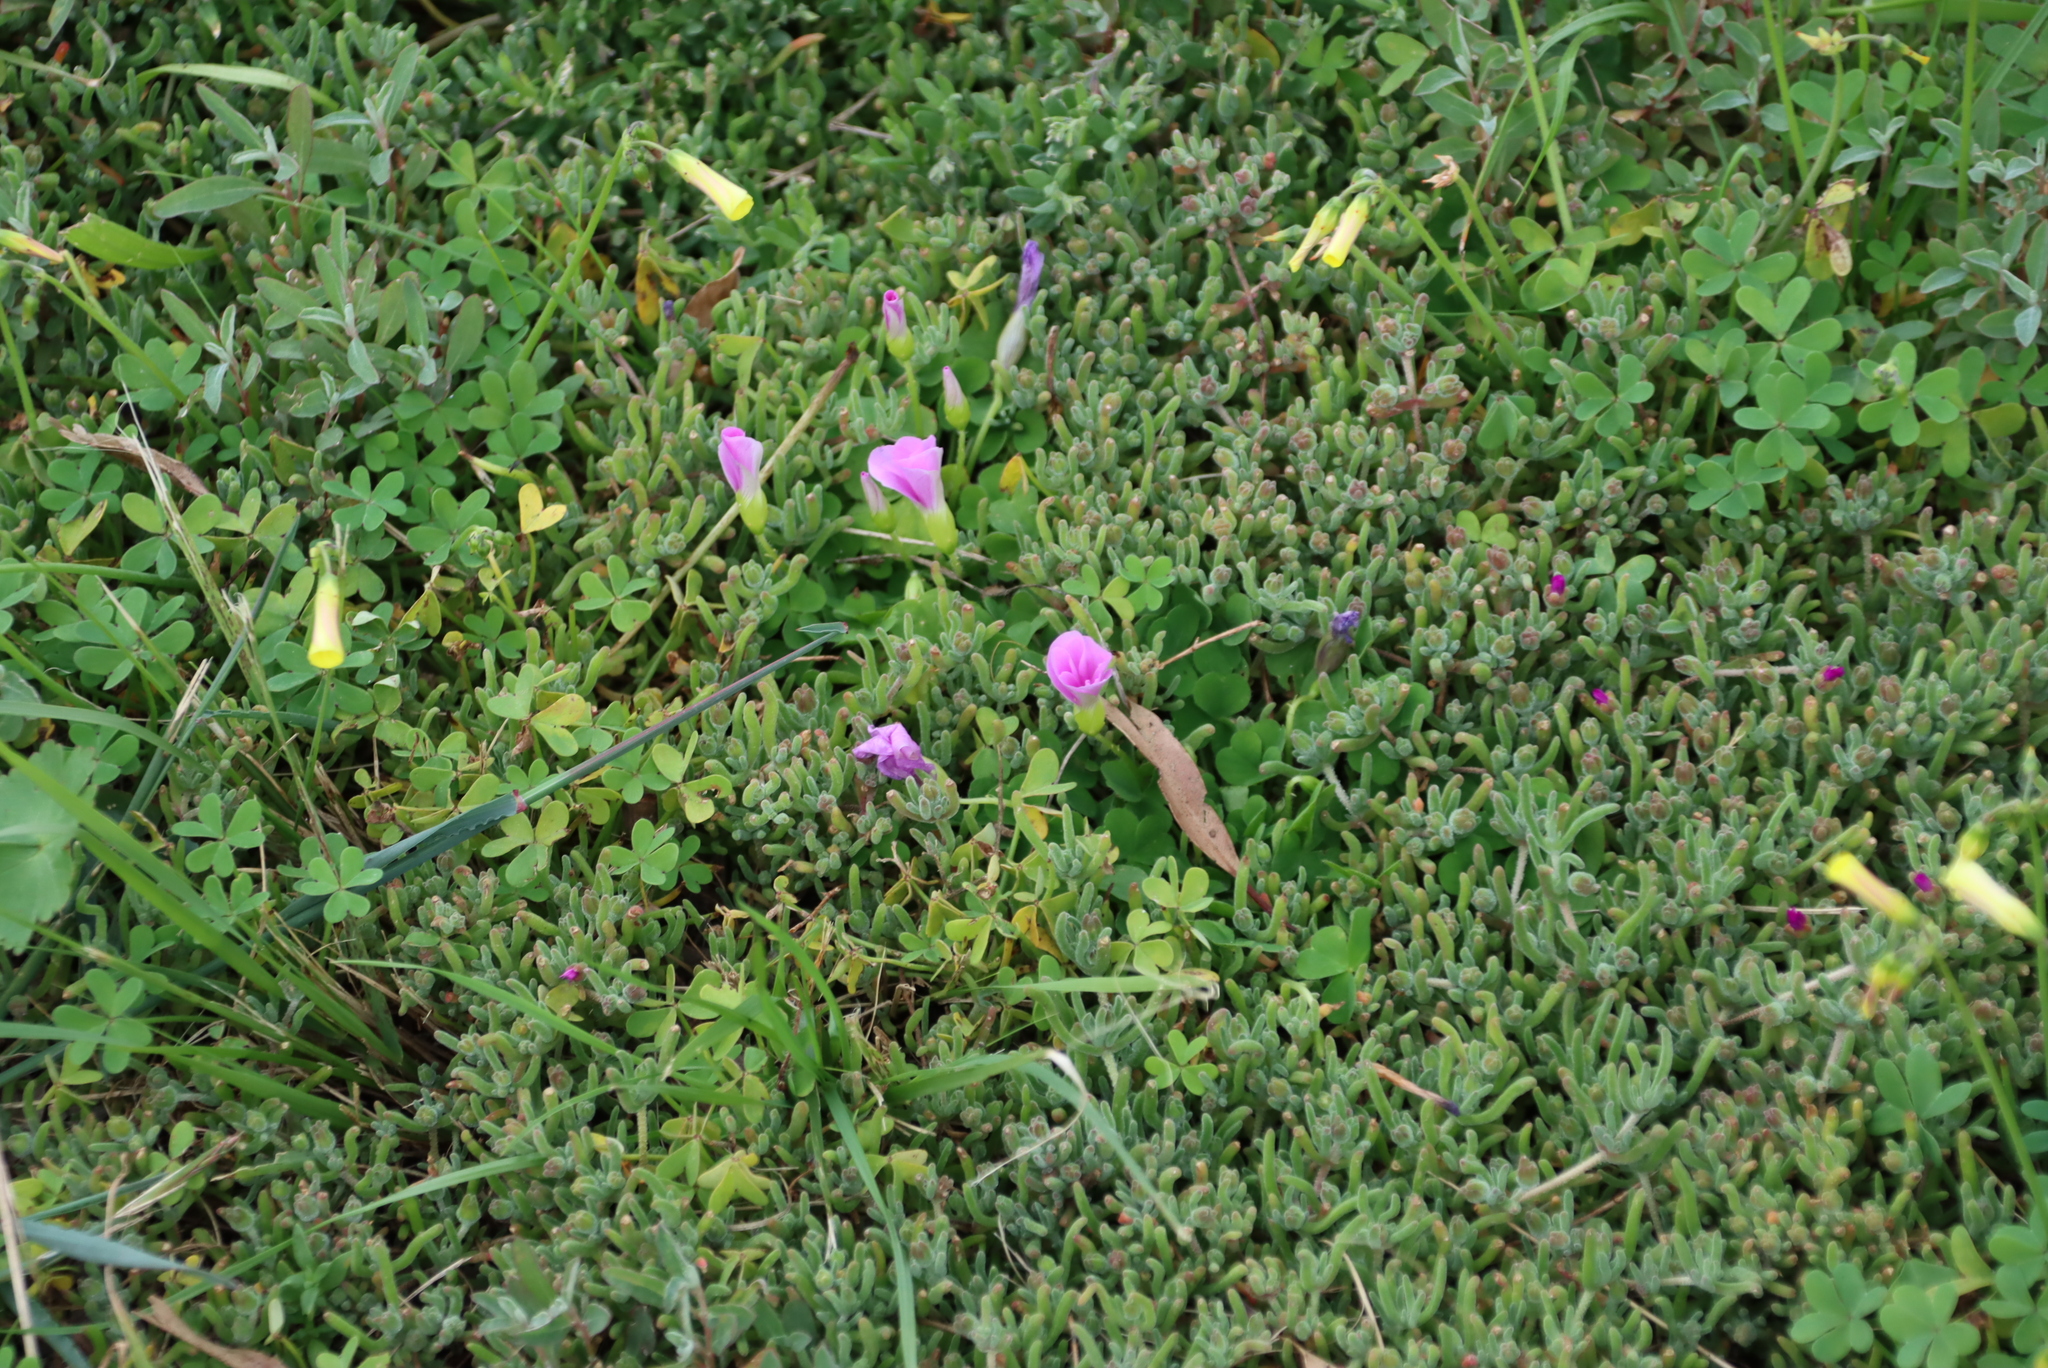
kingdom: Plantae
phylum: Tracheophyta
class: Magnoliopsida
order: Oxalidales
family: Oxalidaceae
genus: Oxalis
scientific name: Oxalis pes-caprae
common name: Bermuda-buttercup
